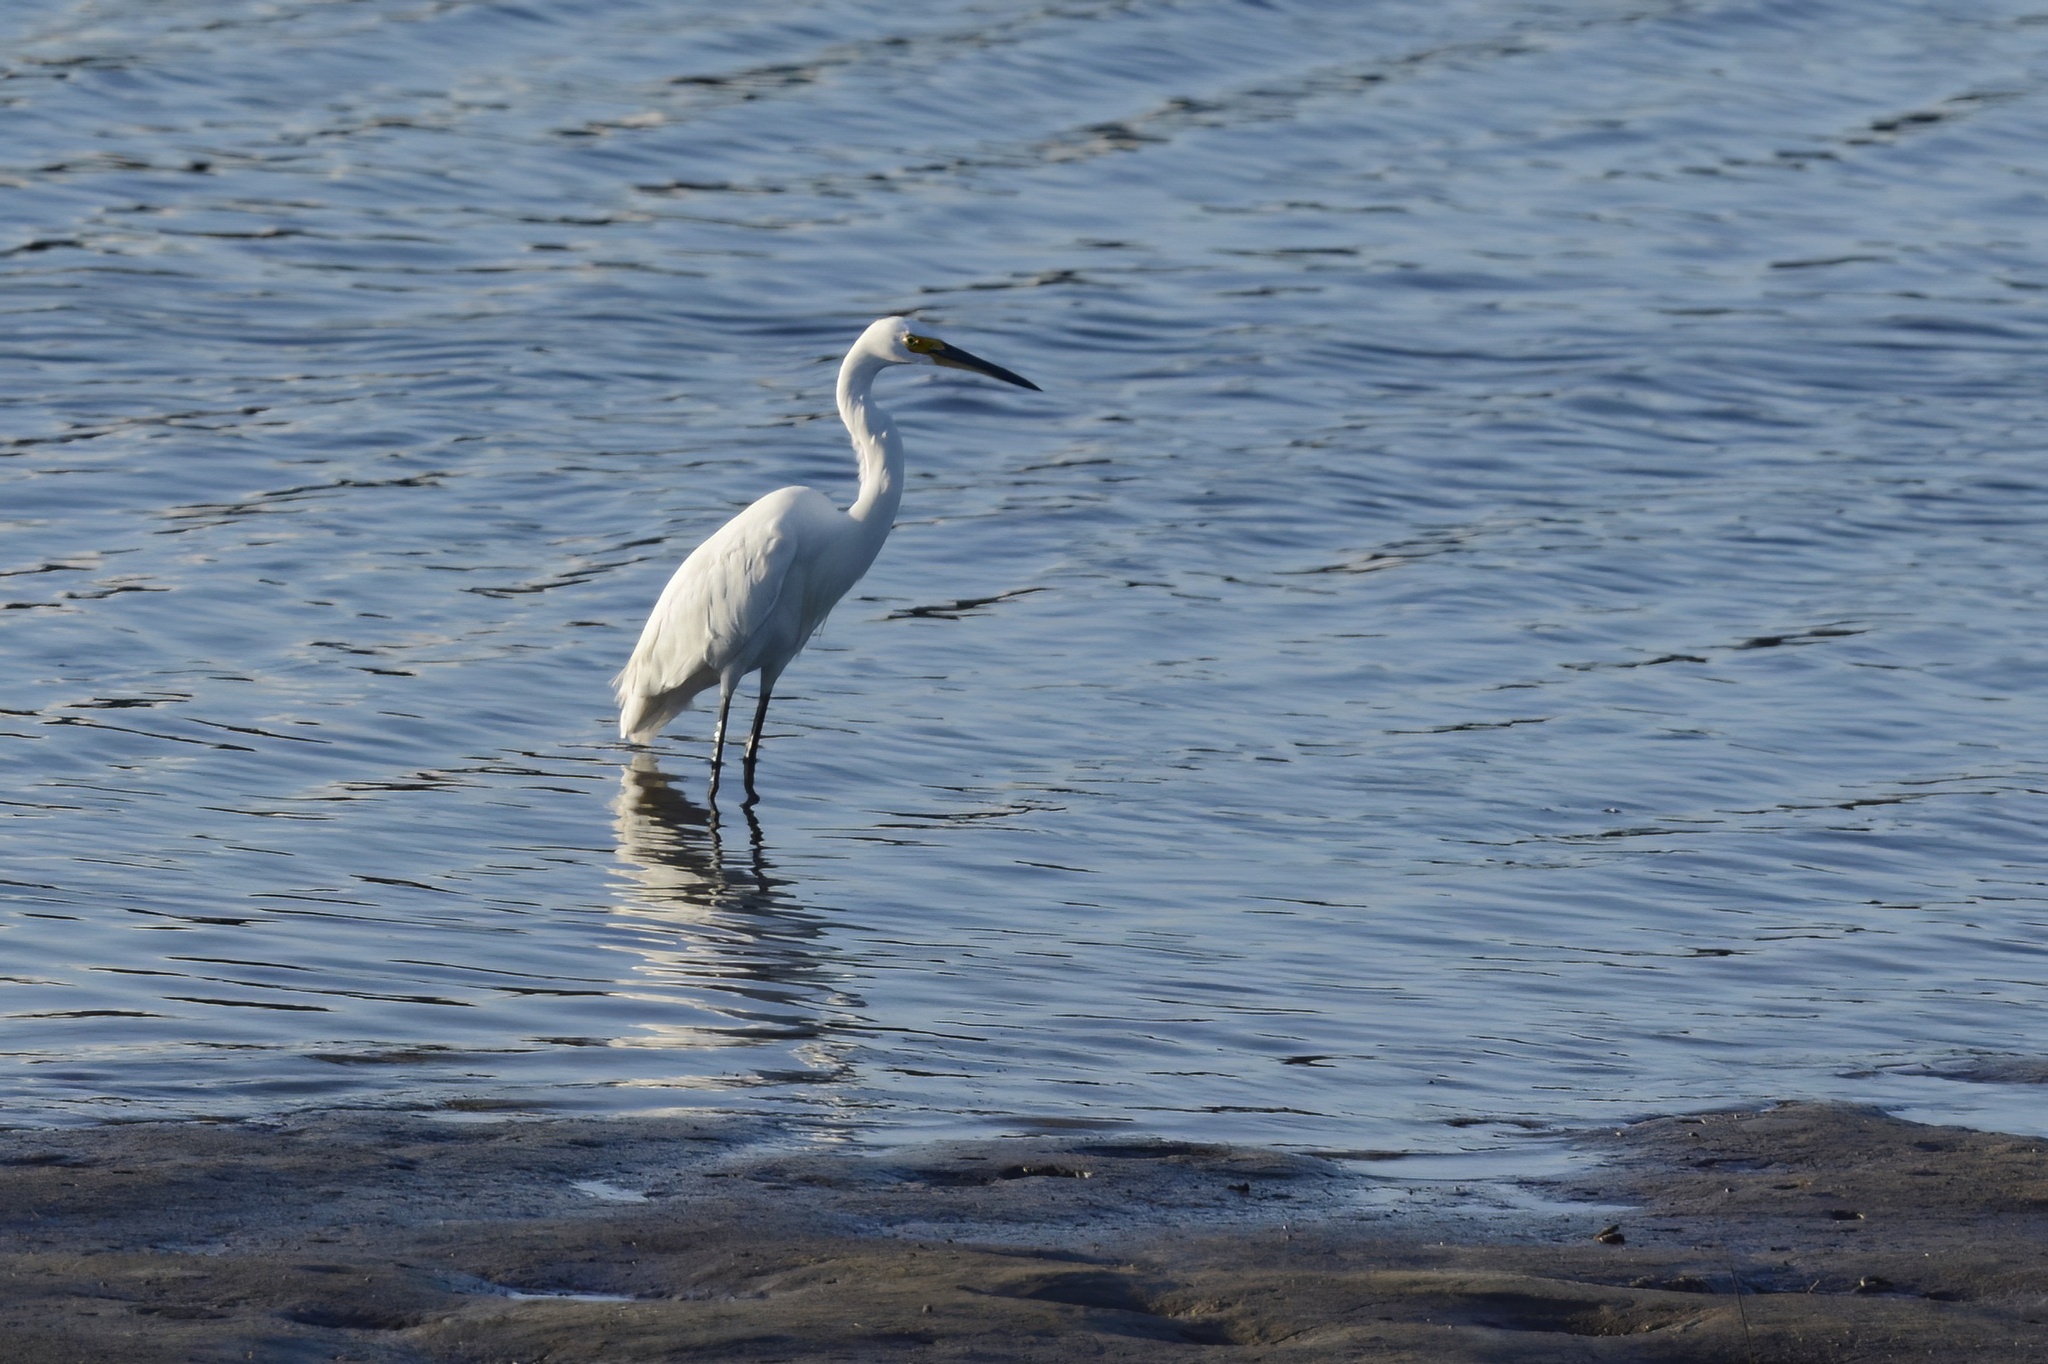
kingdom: Animalia
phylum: Chordata
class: Aves
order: Pelecaniformes
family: Ardeidae
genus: Egretta
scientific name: Egretta garzetta
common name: Little egret
